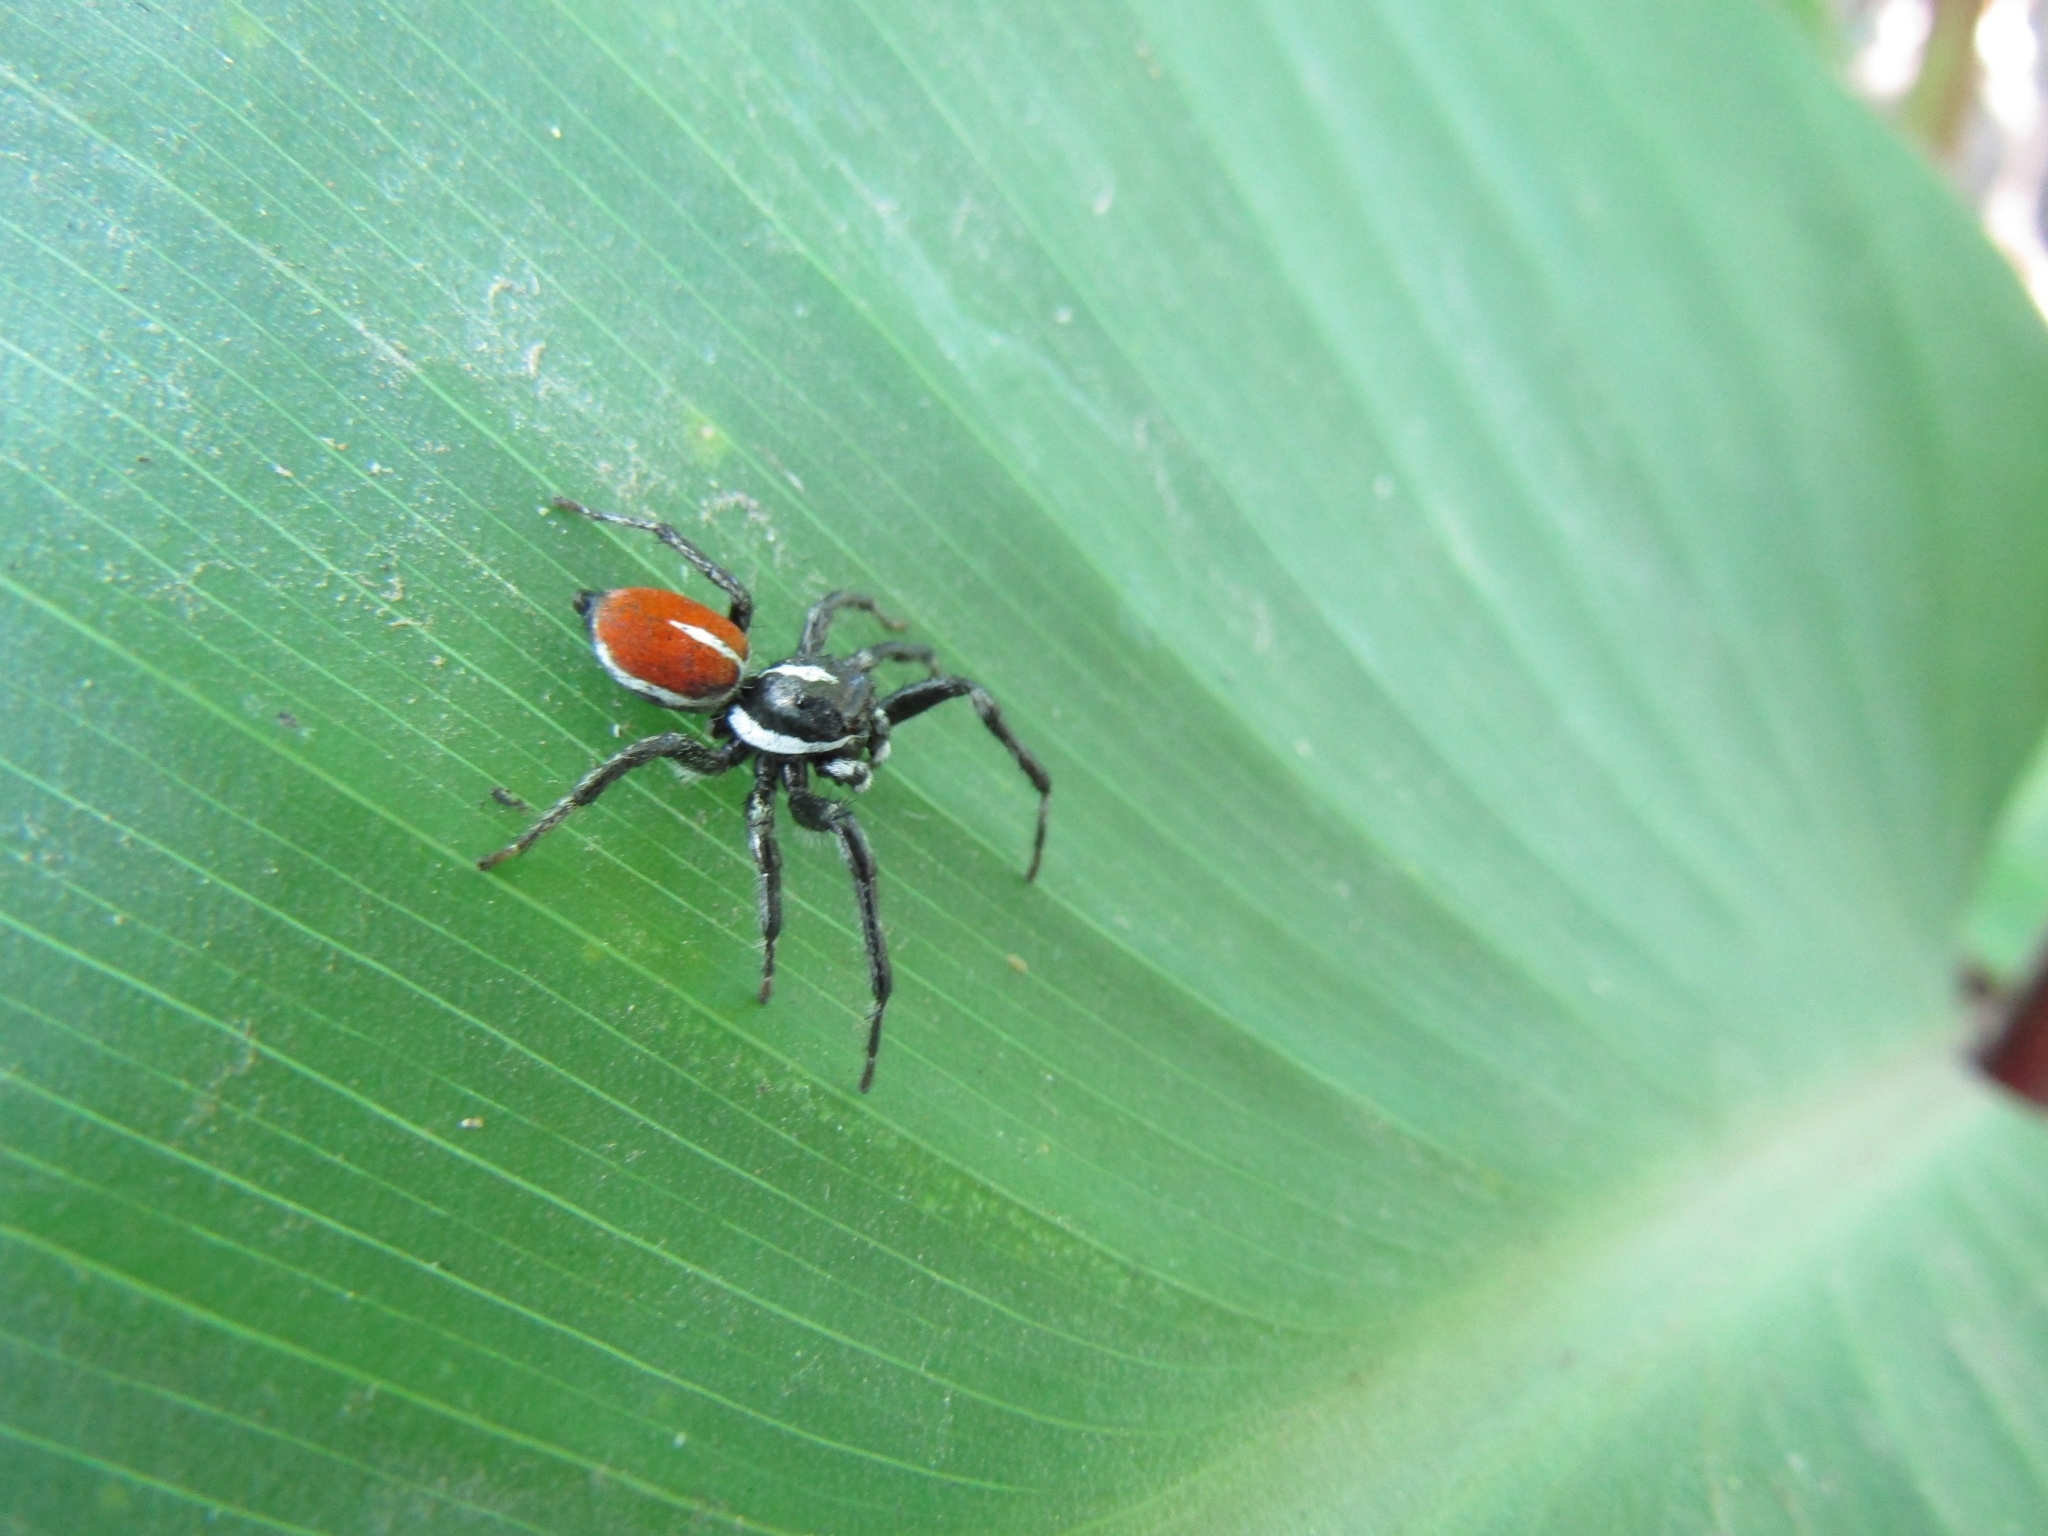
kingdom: Animalia
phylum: Arthropoda
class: Arachnida
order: Araneae
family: Salticidae
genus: Phiale
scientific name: Phiale roburifoliata
